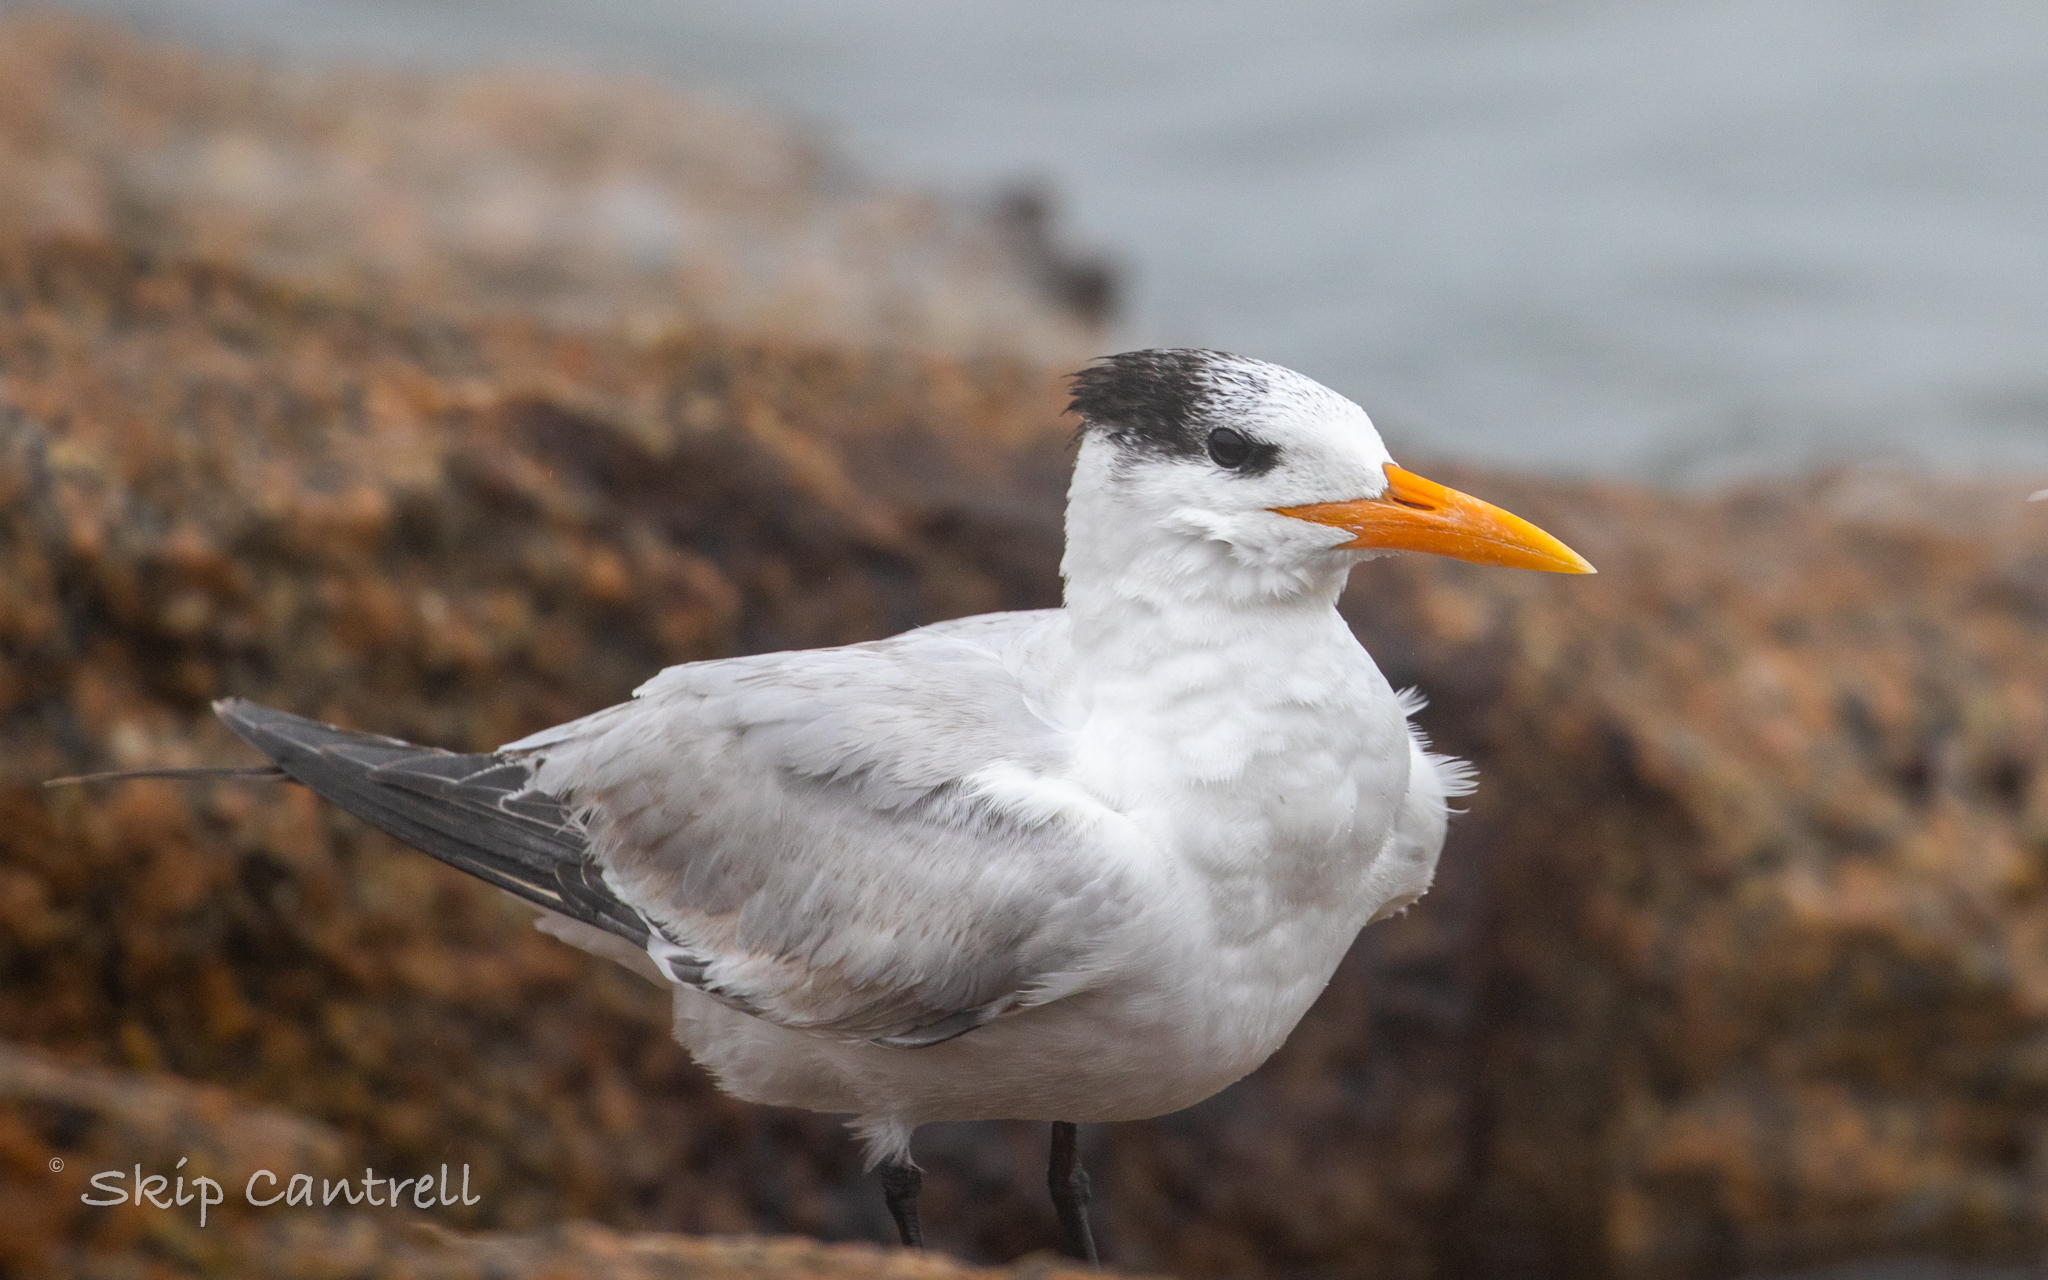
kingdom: Animalia
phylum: Chordata
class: Aves
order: Charadriiformes
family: Laridae
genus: Thalasseus
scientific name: Thalasseus maximus
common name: Royal tern
